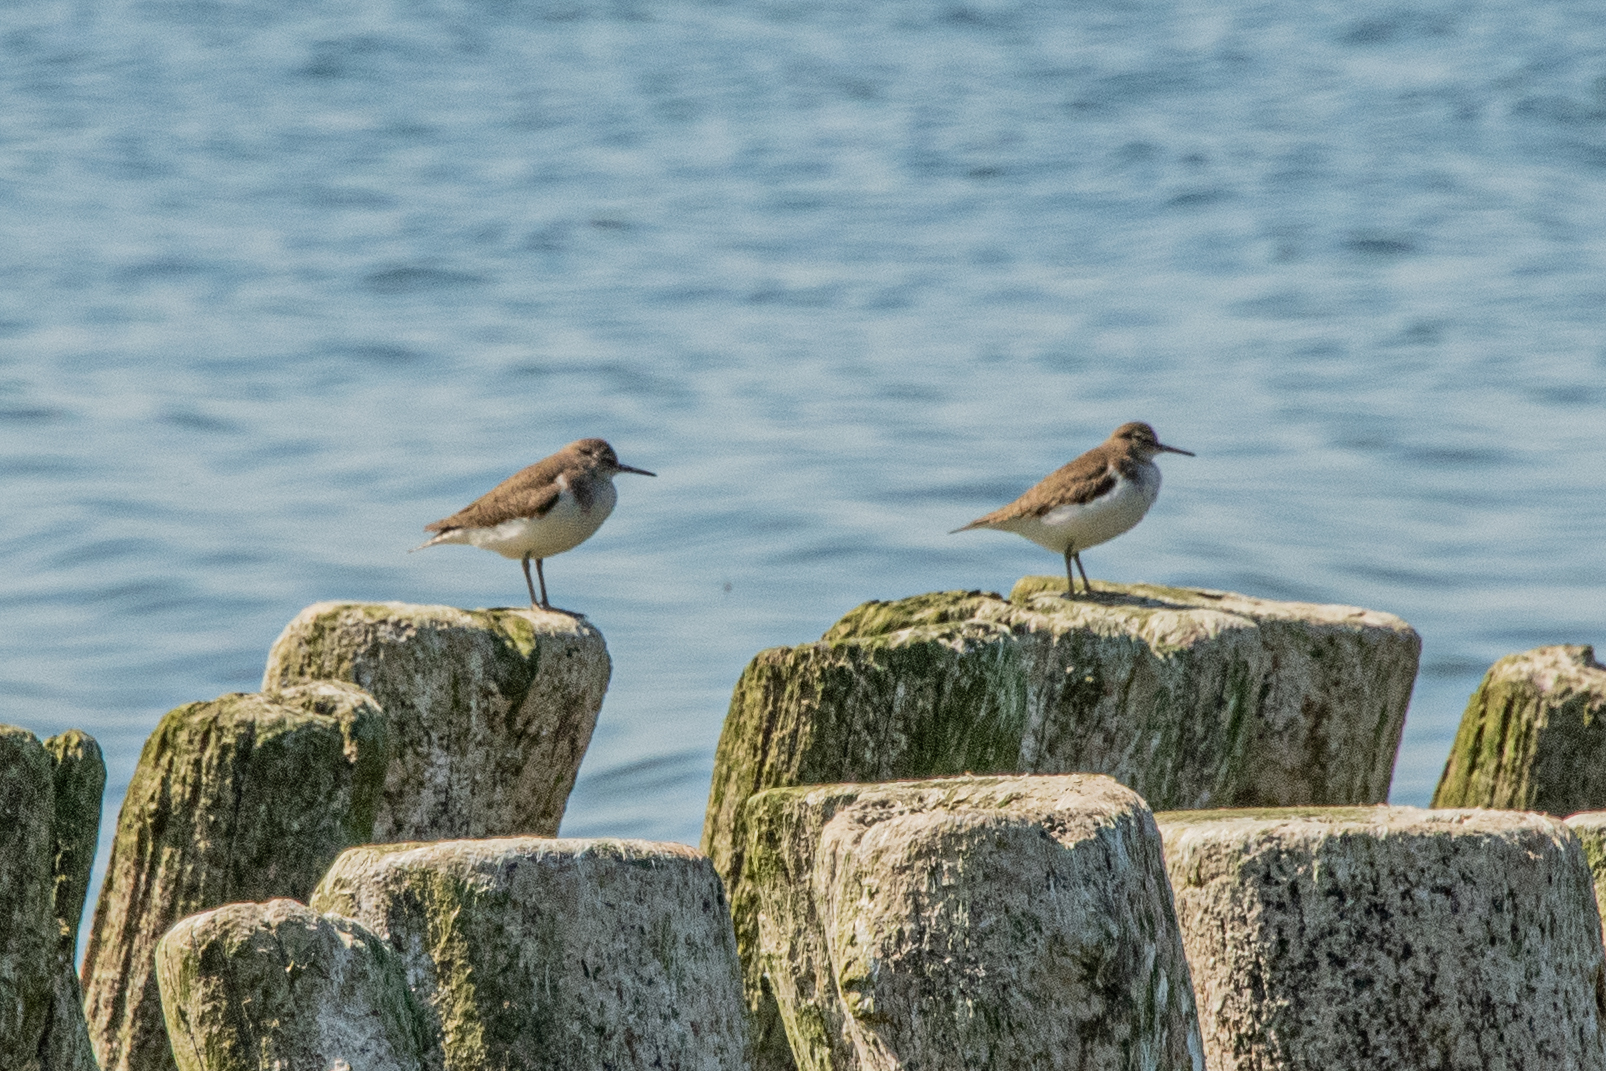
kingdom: Animalia
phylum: Chordata
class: Aves
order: Charadriiformes
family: Scolopacidae
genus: Actitis
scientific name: Actitis hypoleucos
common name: Common sandpiper
